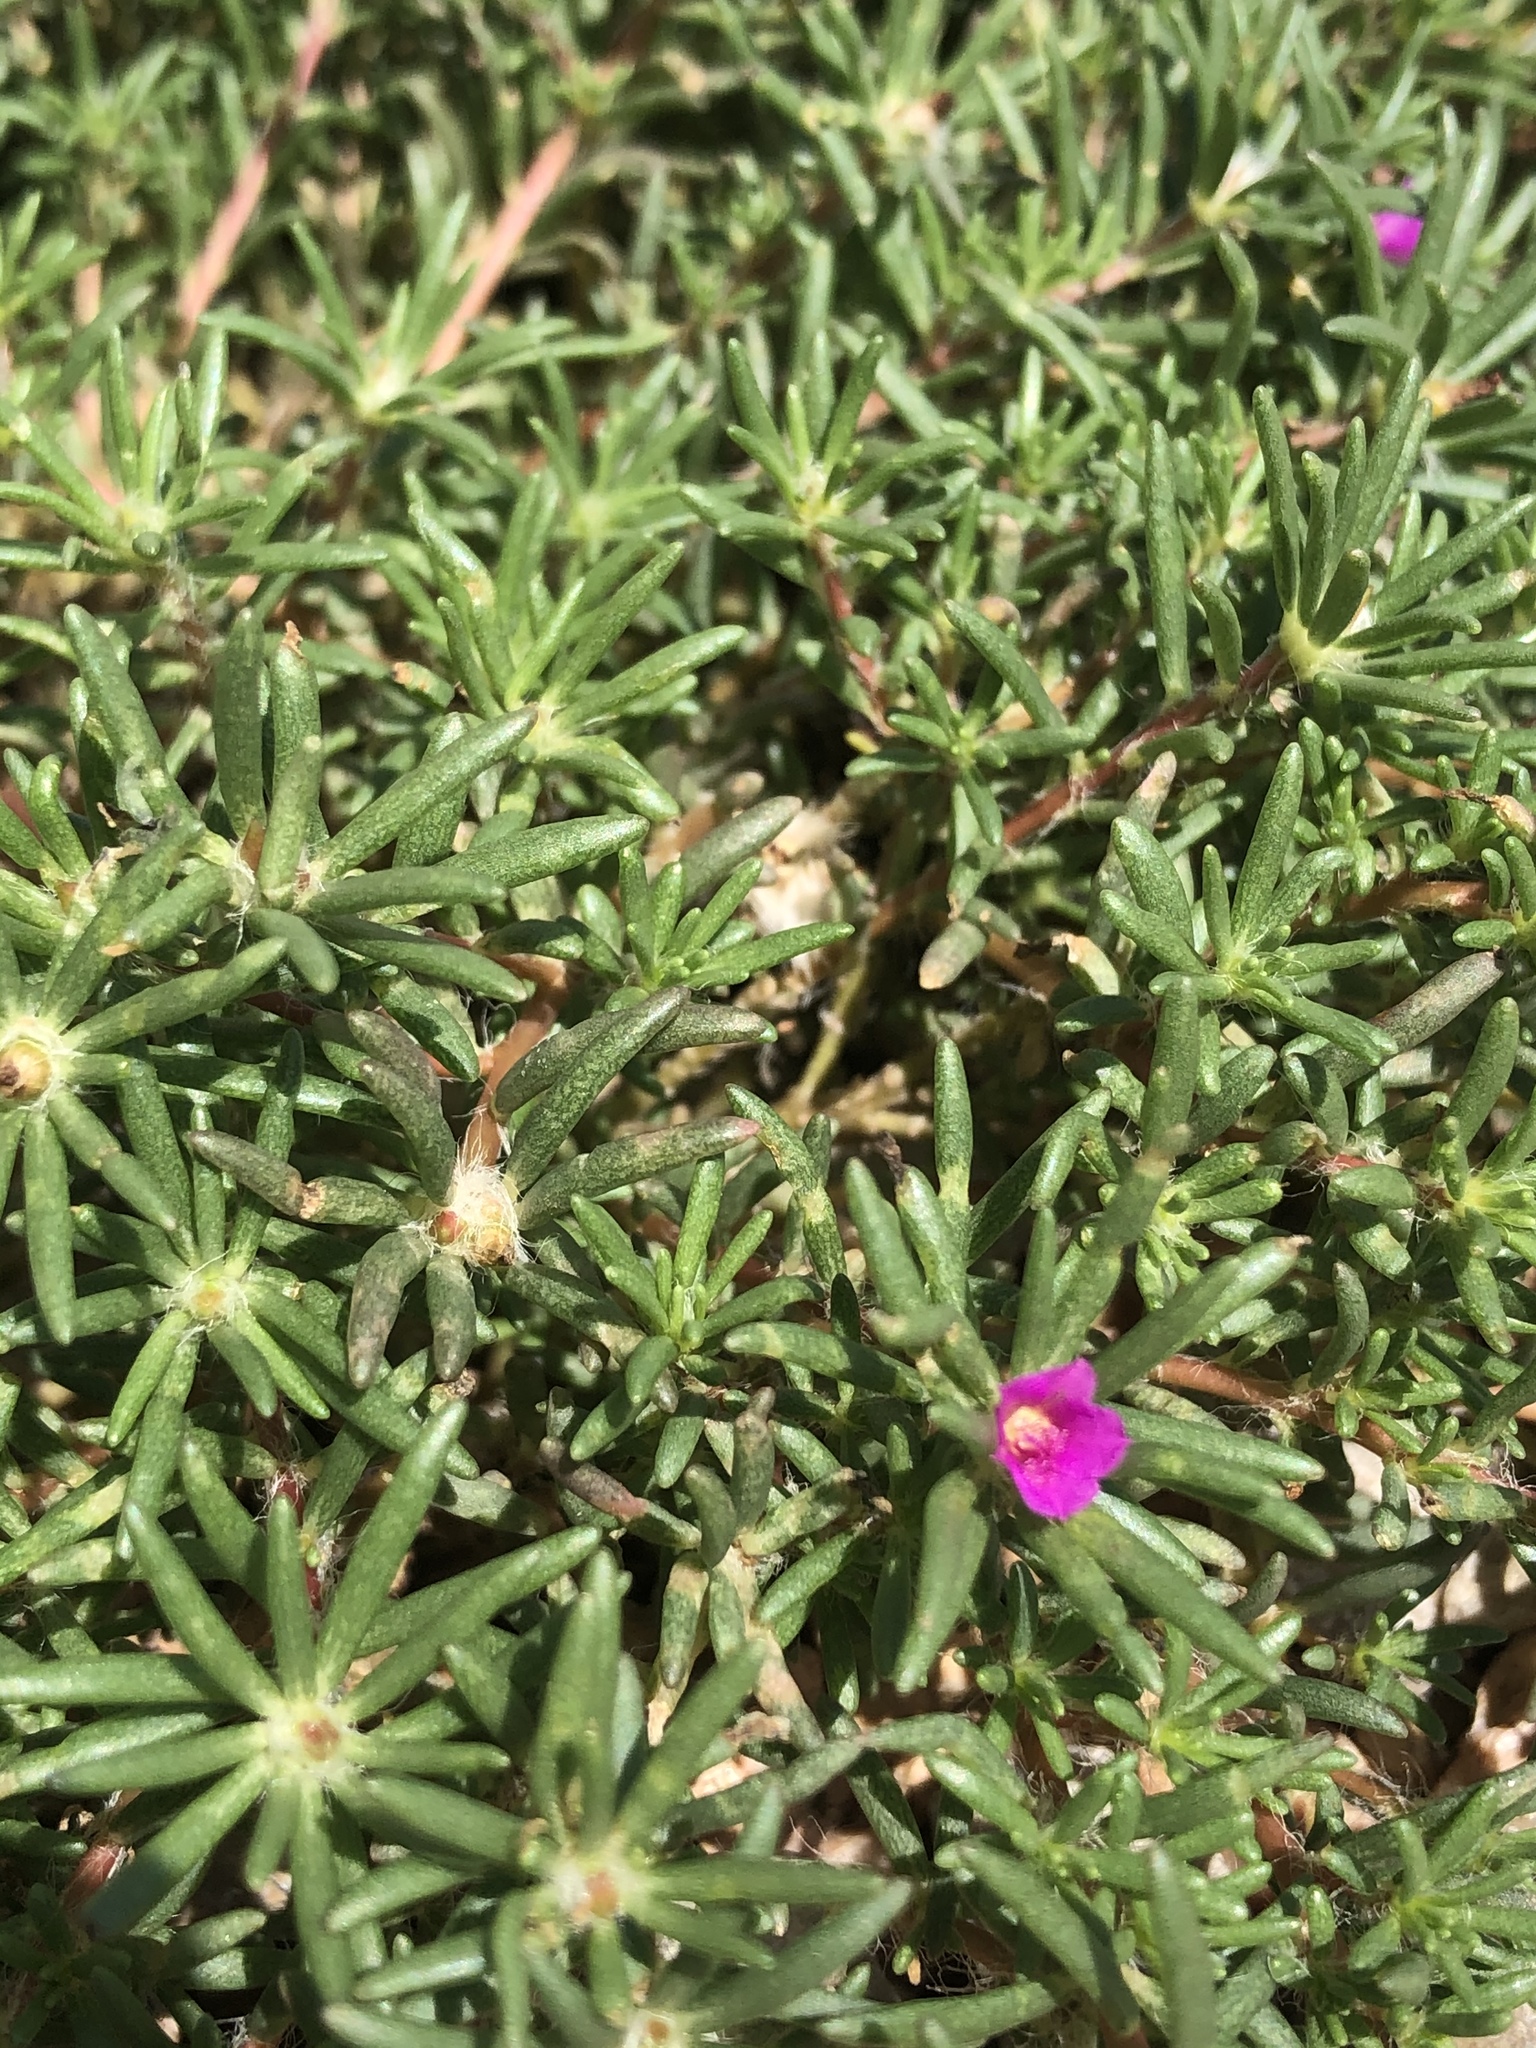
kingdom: Plantae
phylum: Tracheophyta
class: Magnoliopsida
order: Caryophyllales
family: Portulacaceae
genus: Portulaca
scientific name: Portulaca pilosa
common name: Kiss me quick
